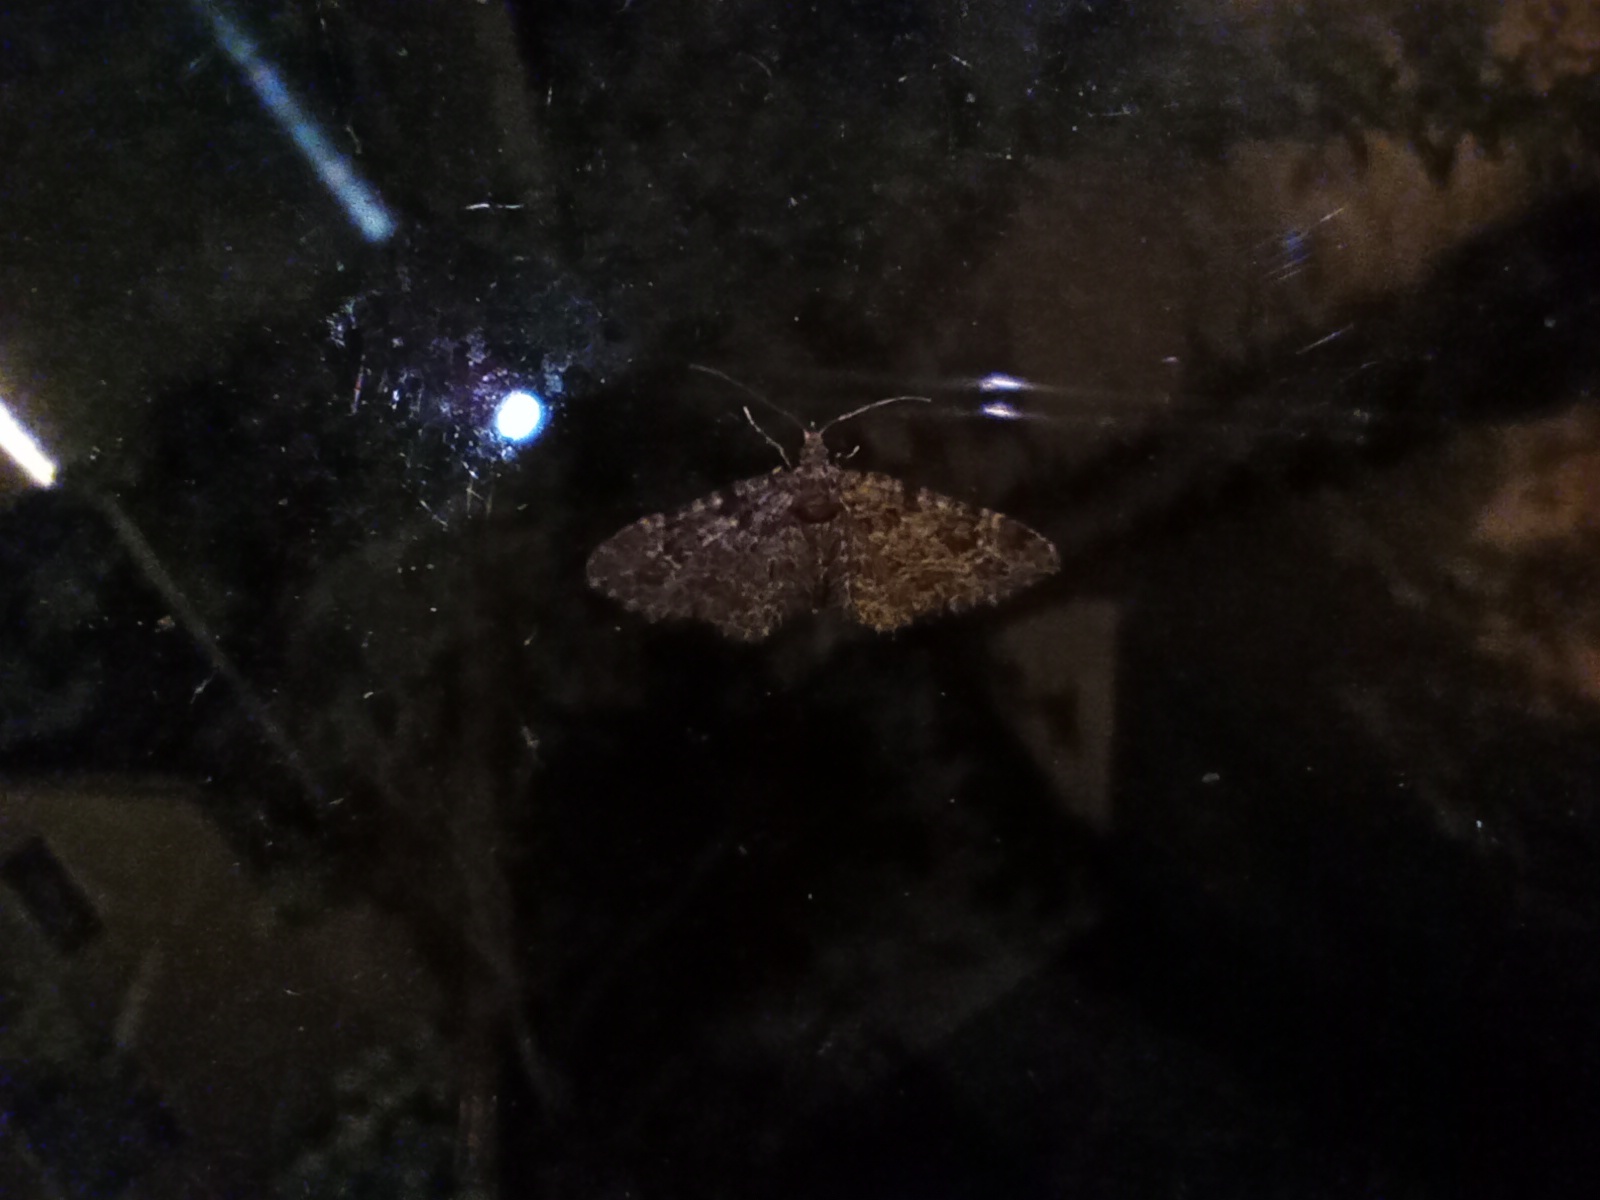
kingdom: Animalia
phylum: Arthropoda
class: Insecta
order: Lepidoptera
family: Geometridae
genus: Gymnoscelis
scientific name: Gymnoscelis rufifasciata
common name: Double-striped pug
